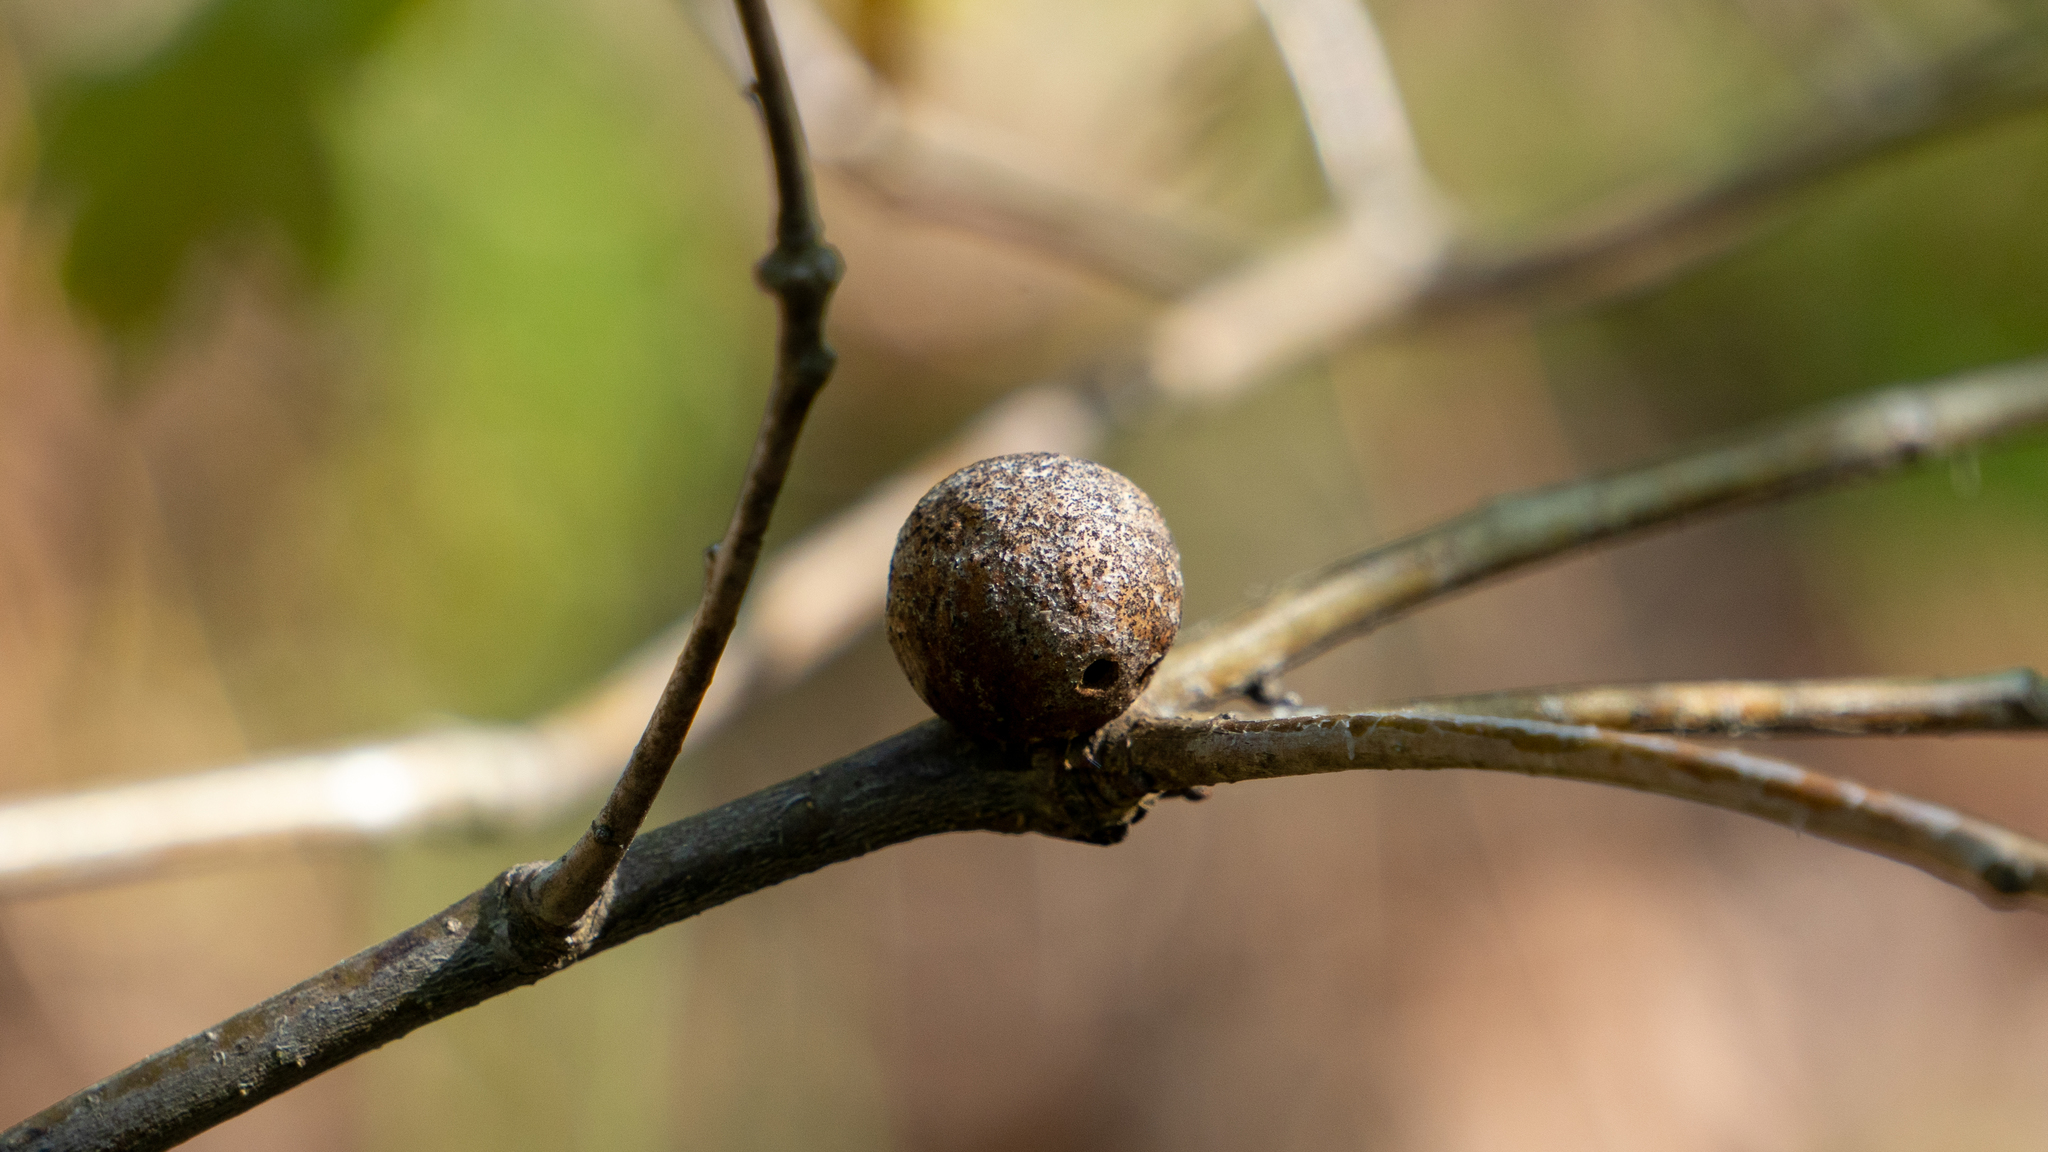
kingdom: Animalia
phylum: Arthropoda
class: Insecta
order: Hymenoptera
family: Cynipidae
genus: Disholcaspis
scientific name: Disholcaspis quercusglobulus
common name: Round bullet gall wasp
